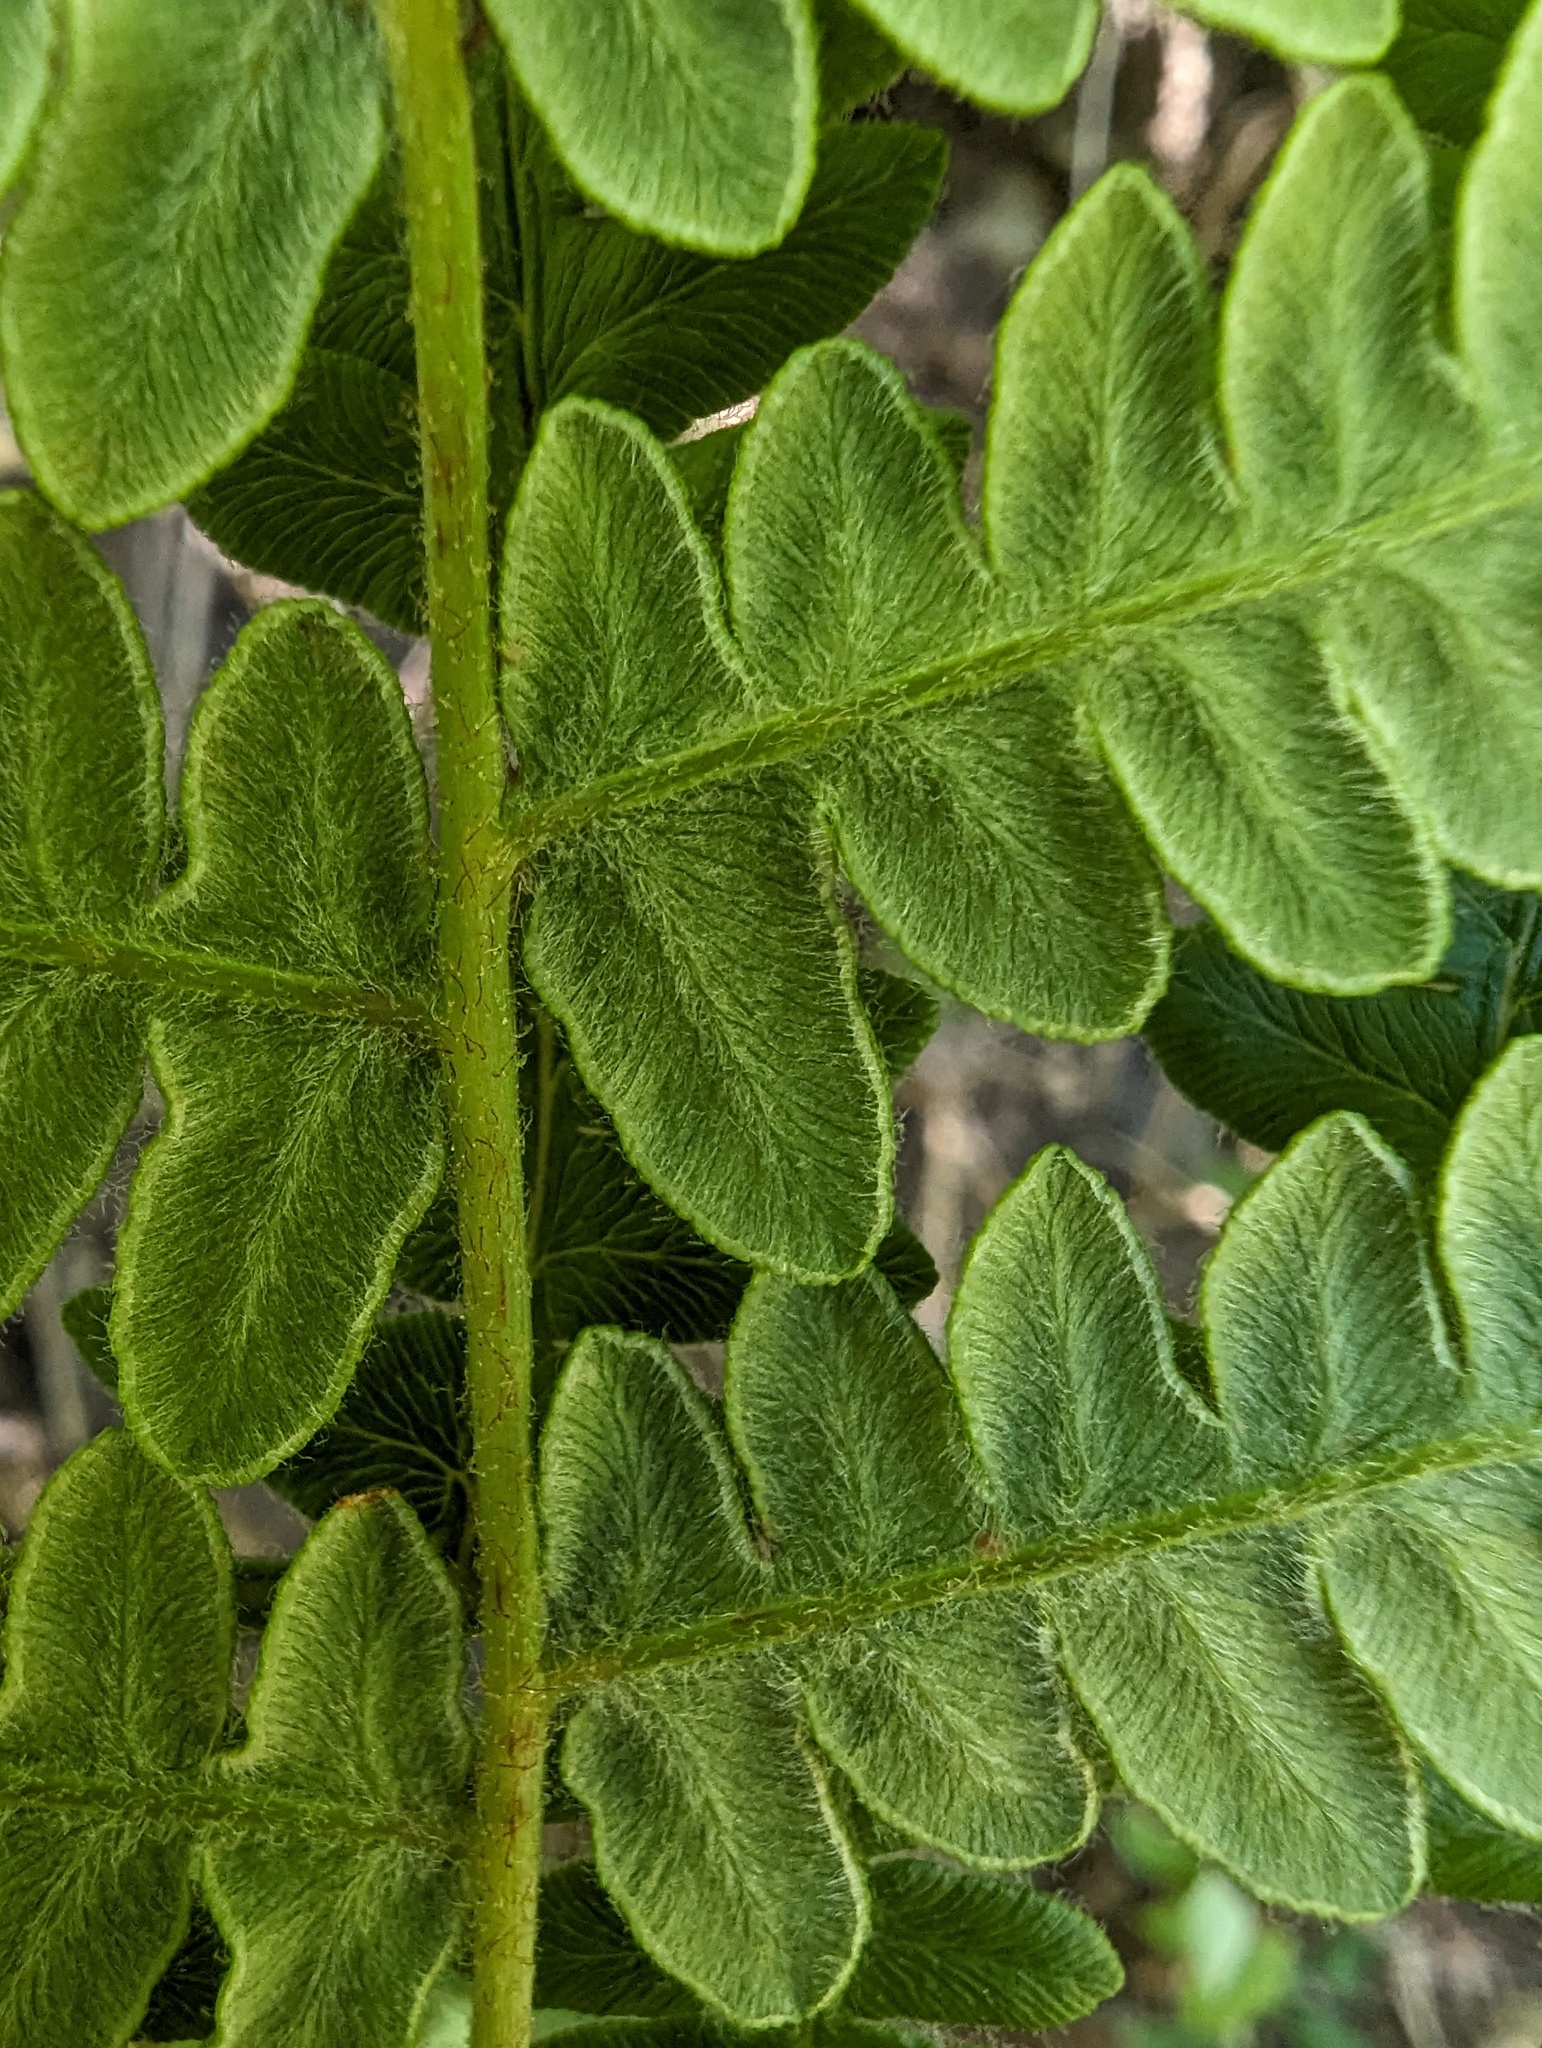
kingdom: Plantae
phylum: Tracheophyta
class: Polypodiopsida
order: Polypodiales
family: Dennstaedtiaceae
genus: Pteridium
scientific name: Pteridium aquilinum
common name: Bracken
